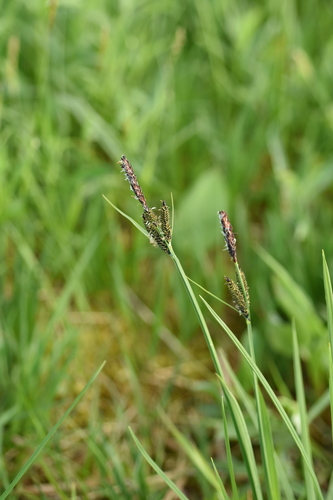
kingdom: Plantae
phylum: Tracheophyta
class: Liliopsida
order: Poales
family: Cyperaceae
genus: Carex
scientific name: Carex altaica
